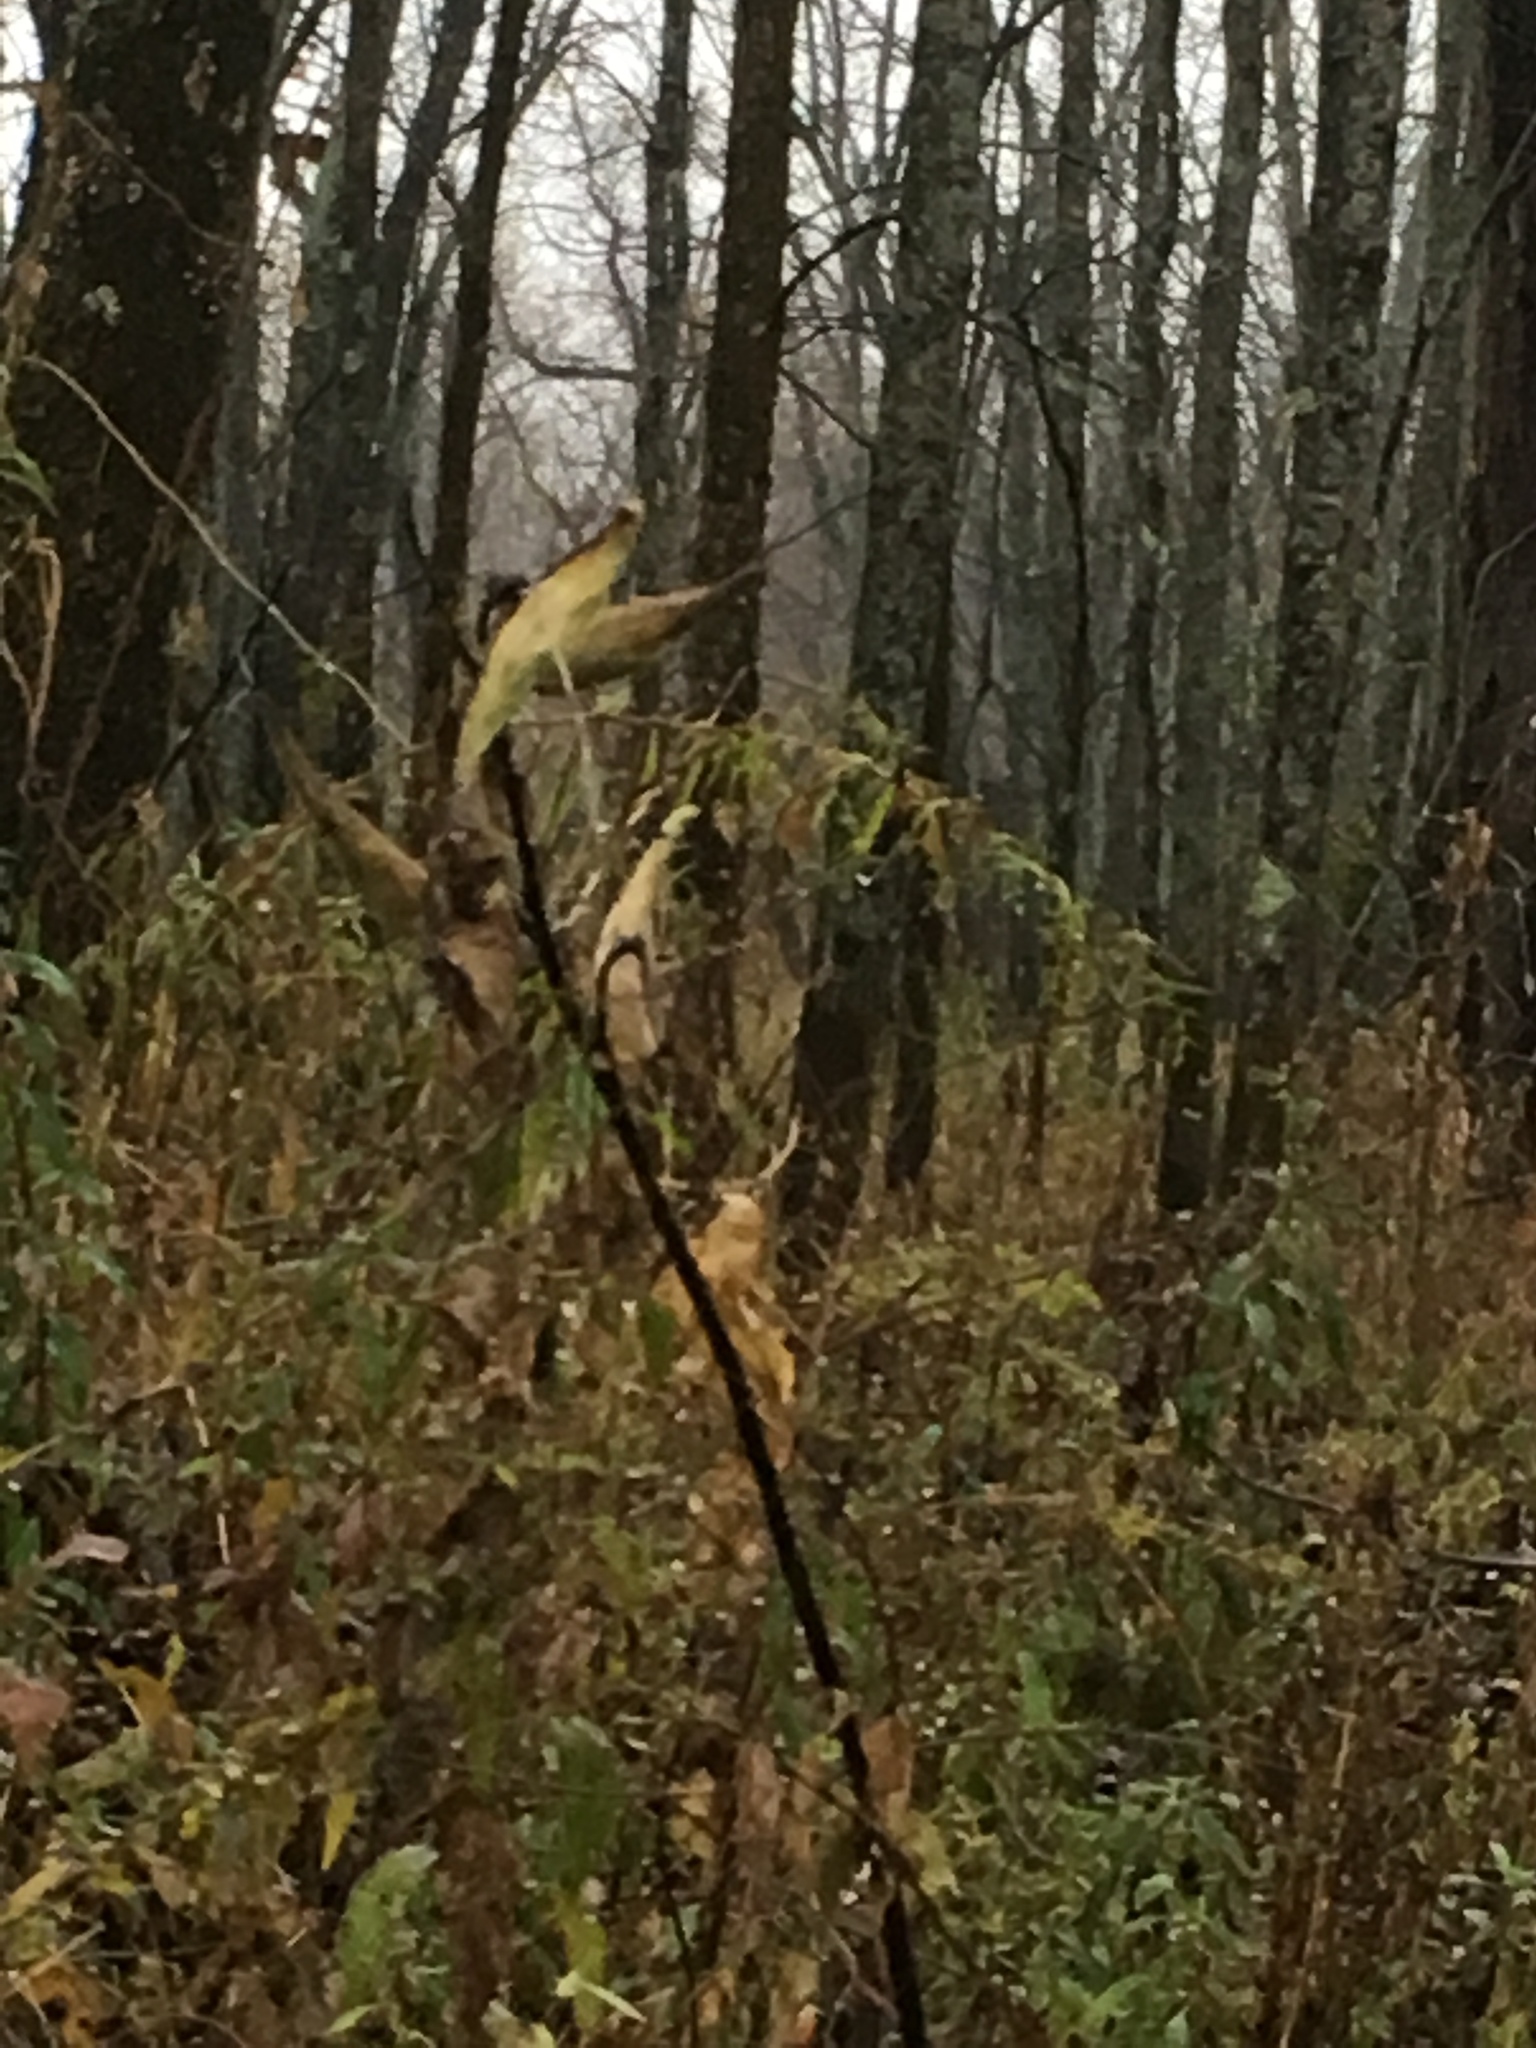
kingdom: Plantae
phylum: Tracheophyta
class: Magnoliopsida
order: Gentianales
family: Apocynaceae
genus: Asclepias
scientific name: Asclepias syriaca
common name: Common milkweed
